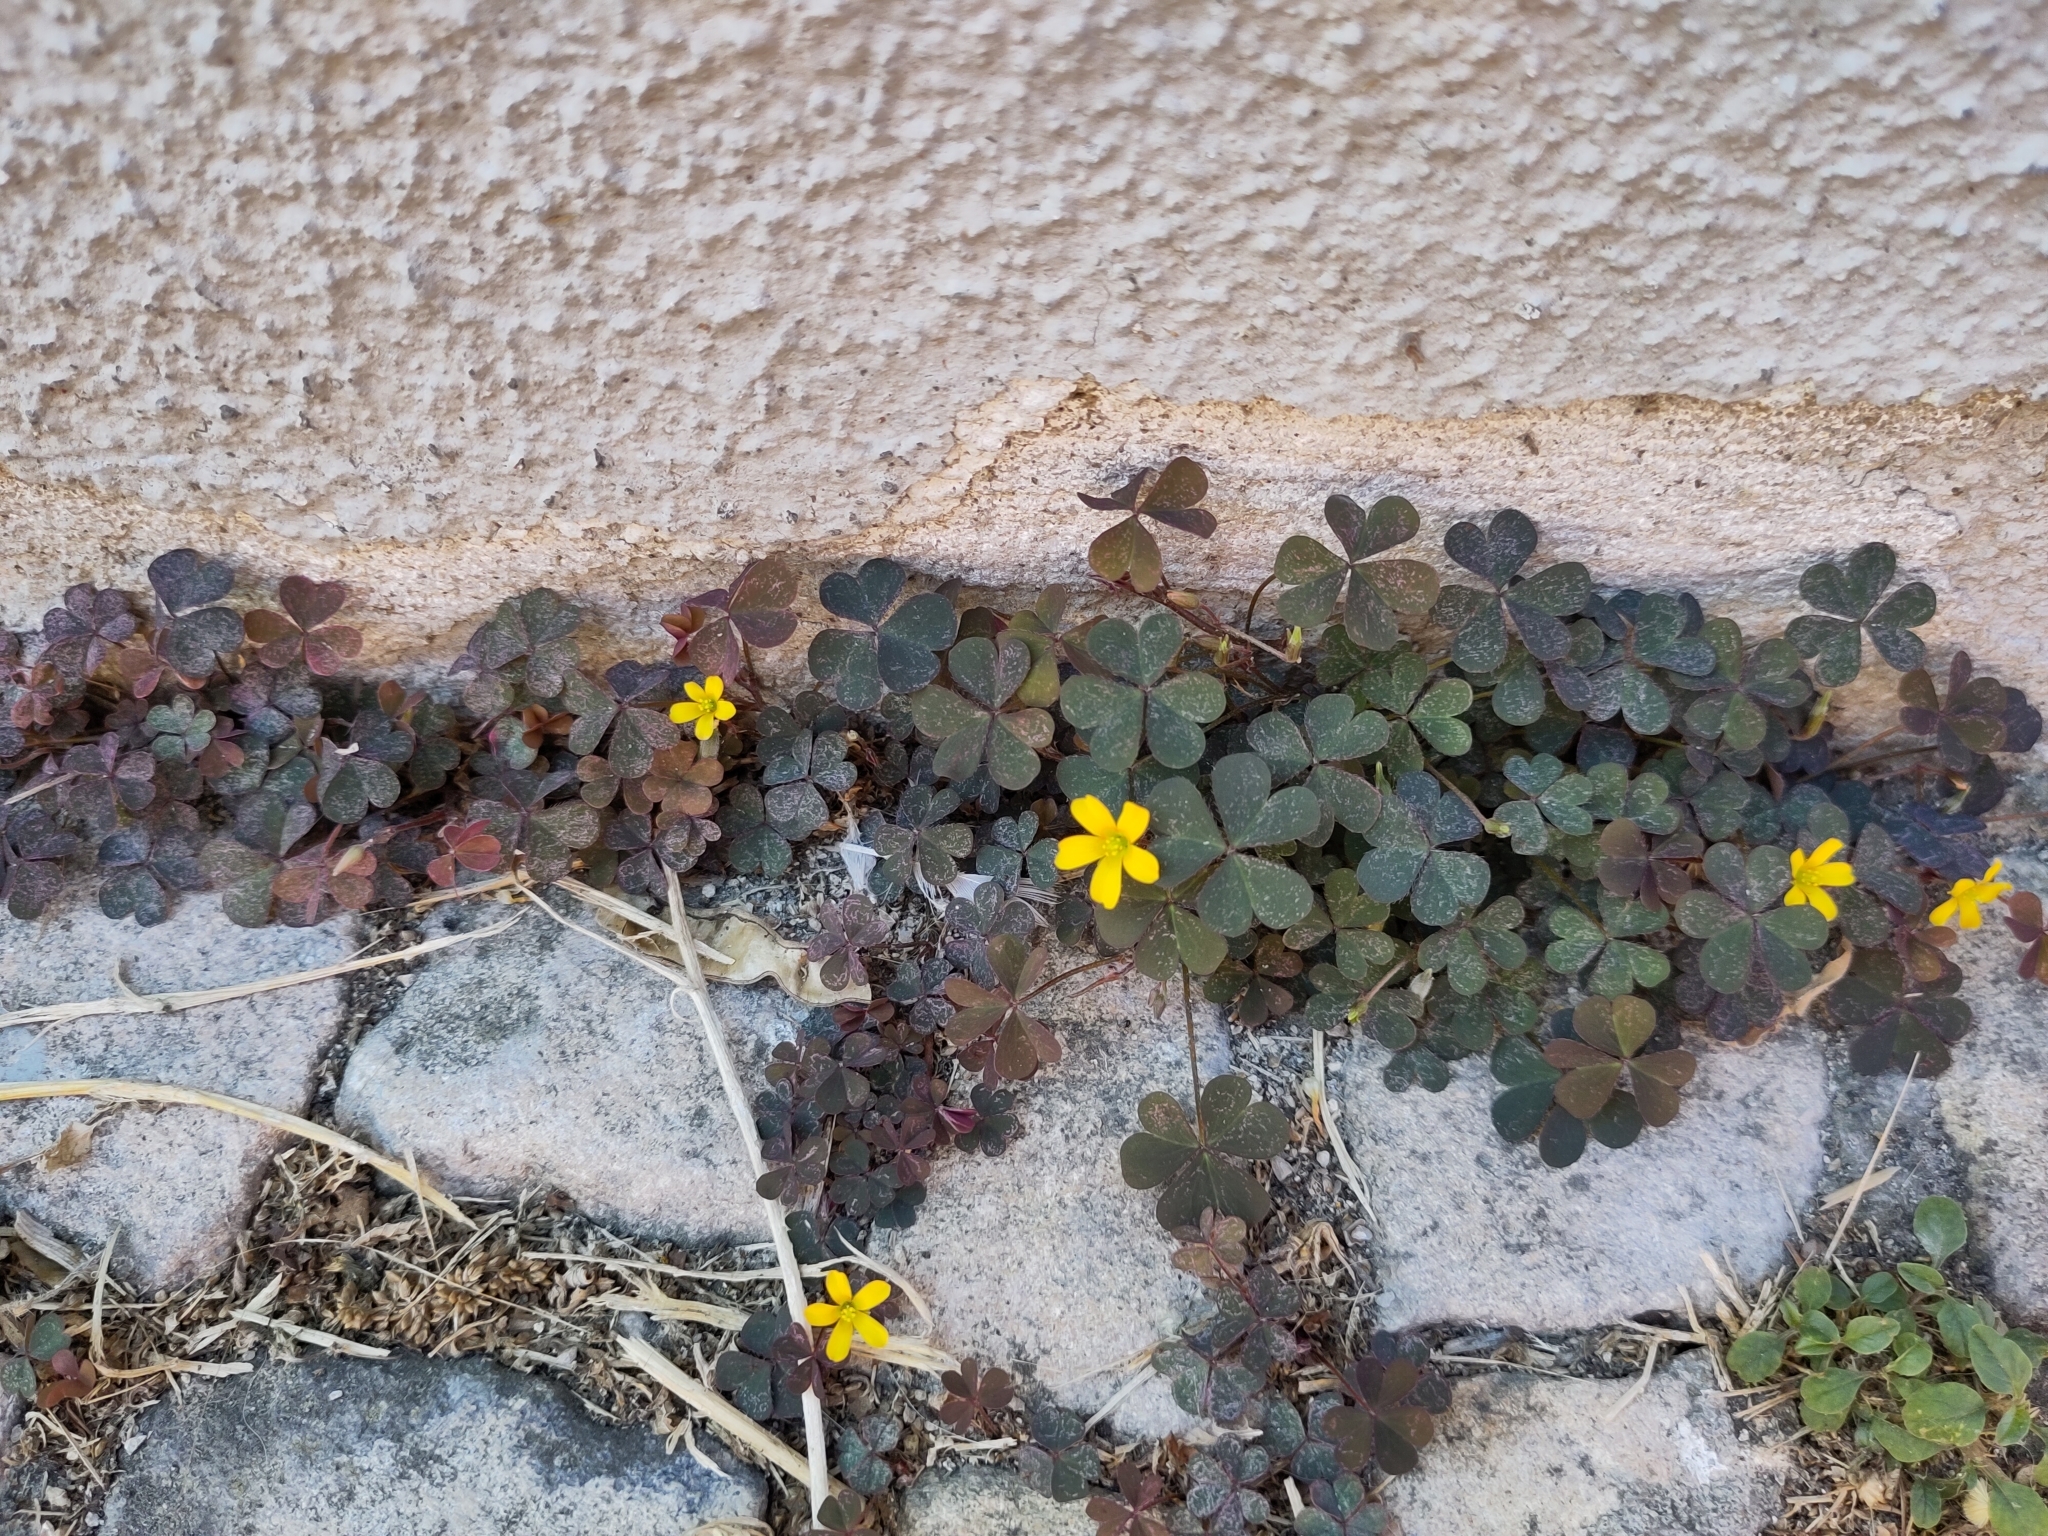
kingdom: Plantae
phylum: Tracheophyta
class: Magnoliopsida
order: Oxalidales
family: Oxalidaceae
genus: Oxalis
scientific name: Oxalis corniculata
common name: Procumbent yellow-sorrel
